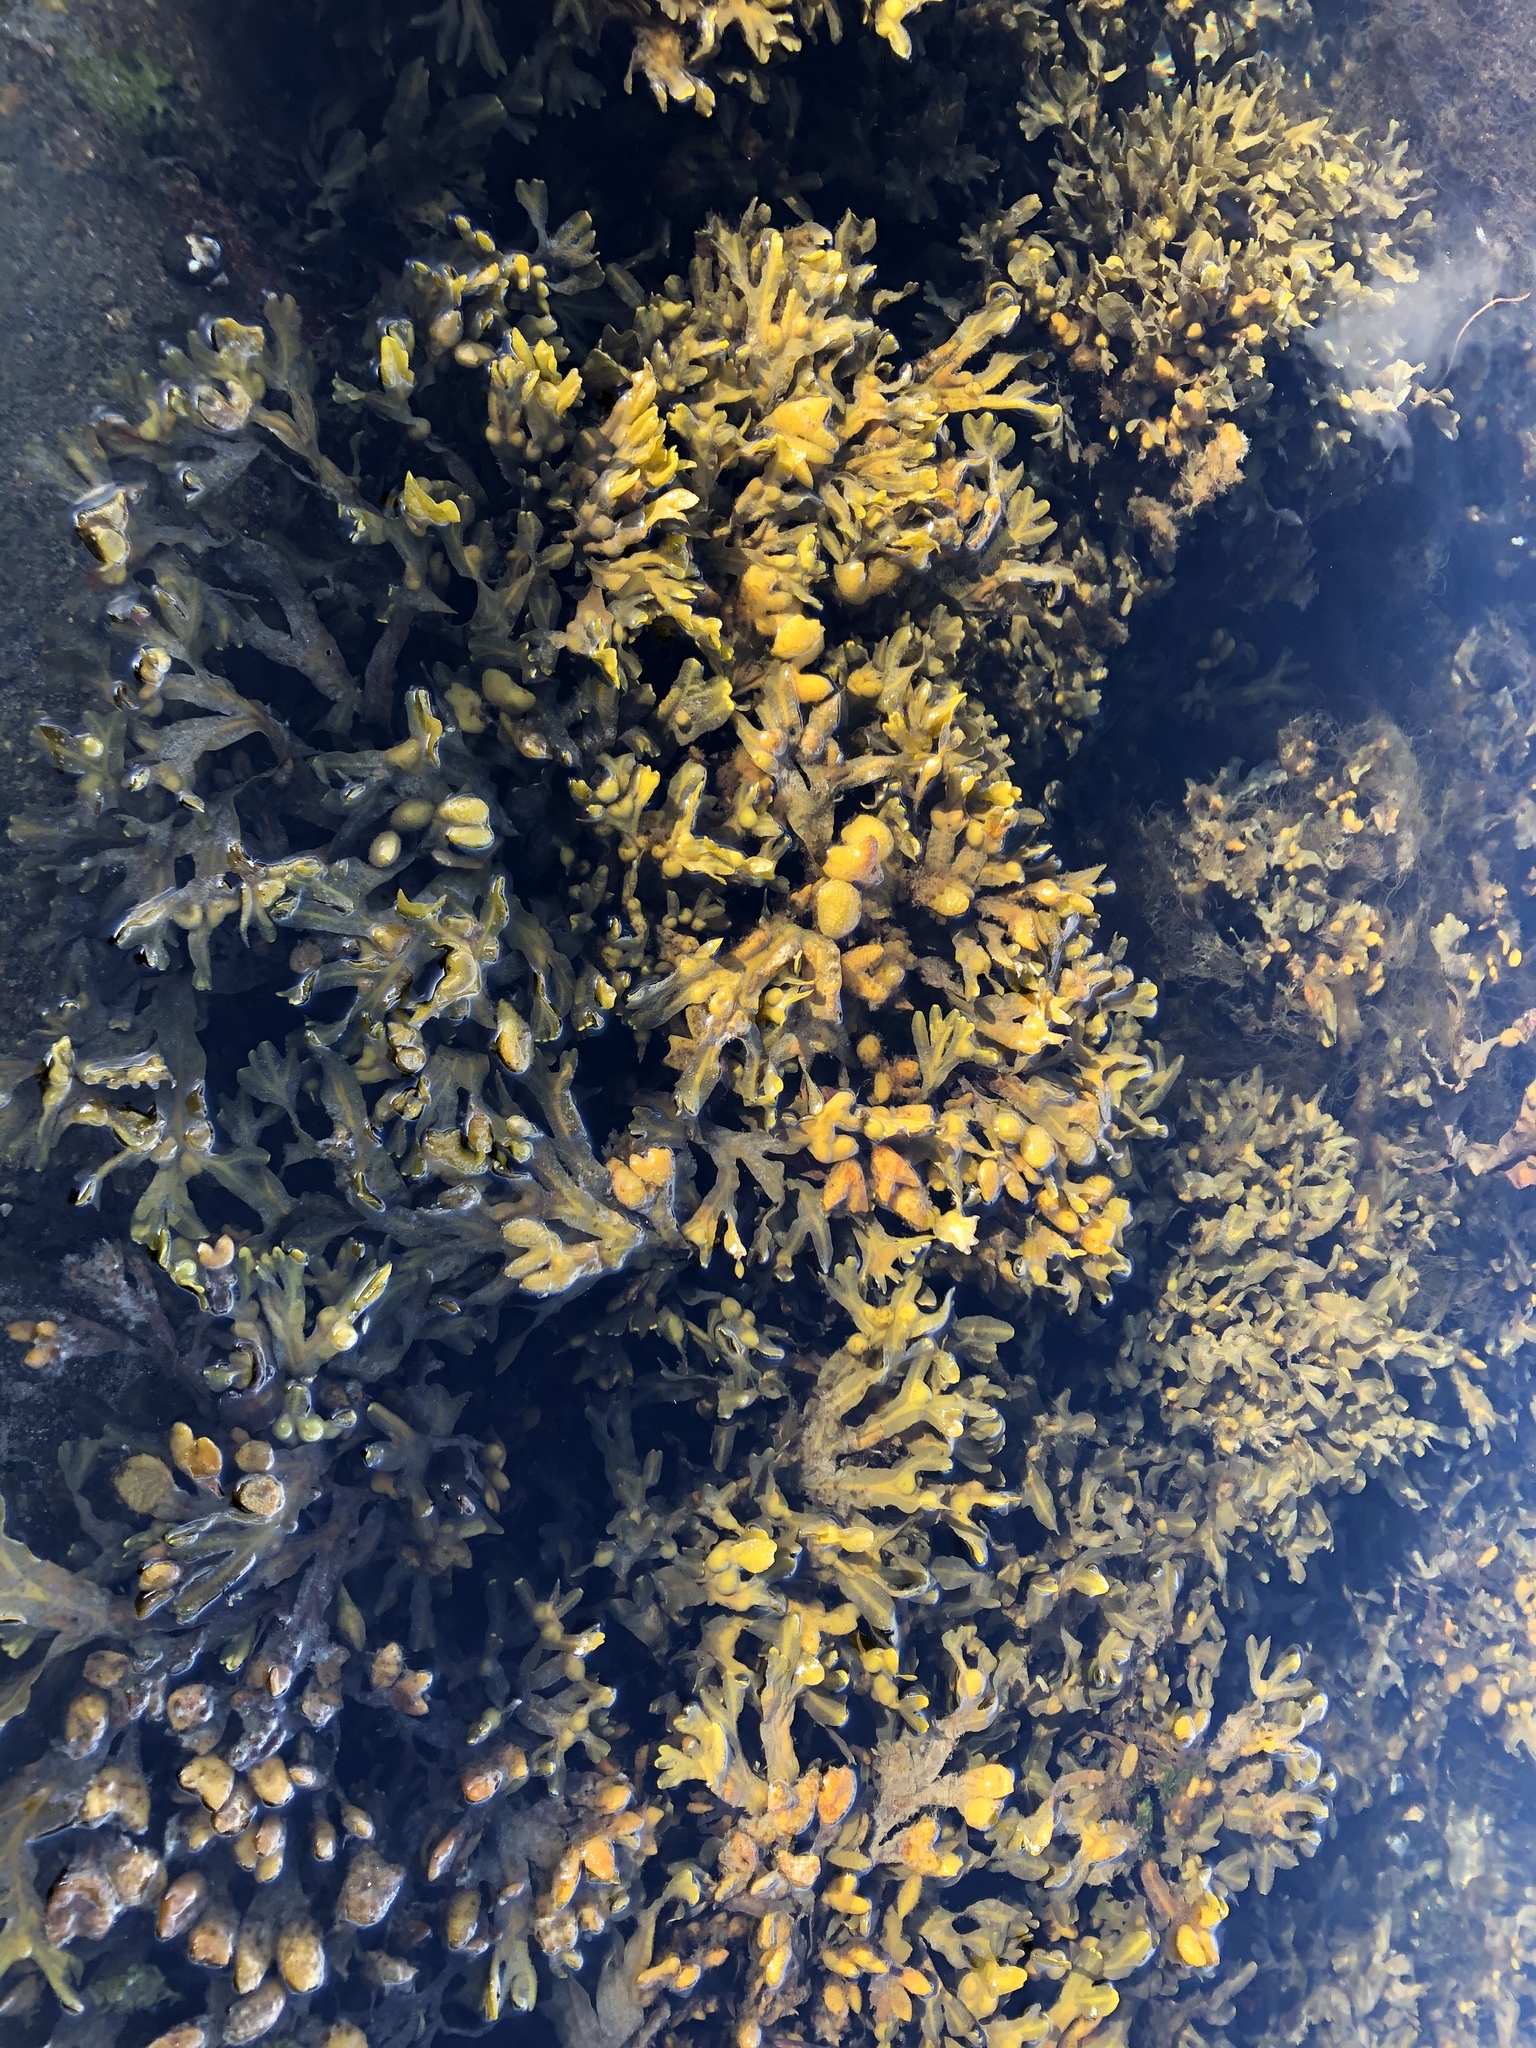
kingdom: Chromista
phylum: Ochrophyta
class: Phaeophyceae
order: Fucales
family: Fucaceae
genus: Fucus
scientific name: Fucus vesiculosus
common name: Bladder wrack
